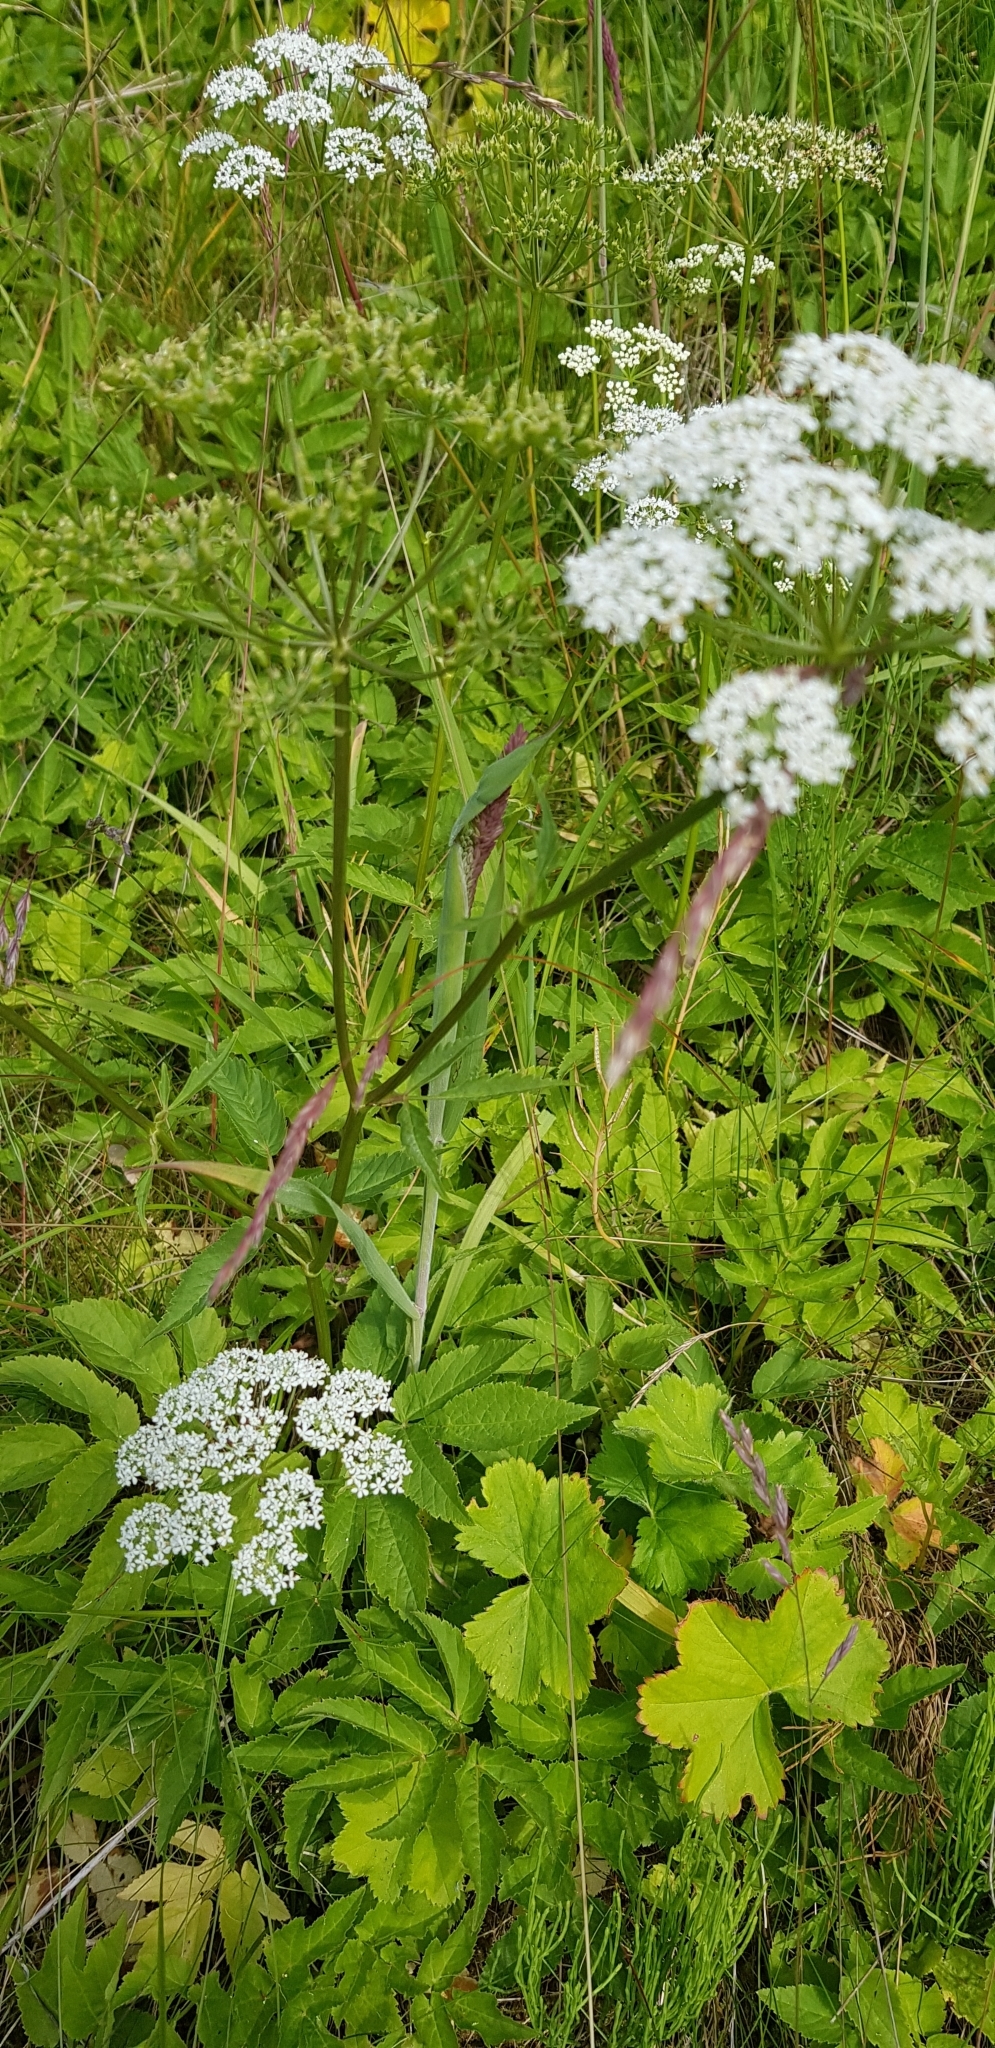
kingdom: Plantae
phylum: Tracheophyta
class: Magnoliopsida
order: Apiales
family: Apiaceae
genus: Angelica
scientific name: Angelica sylvestris
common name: Wild angelica
